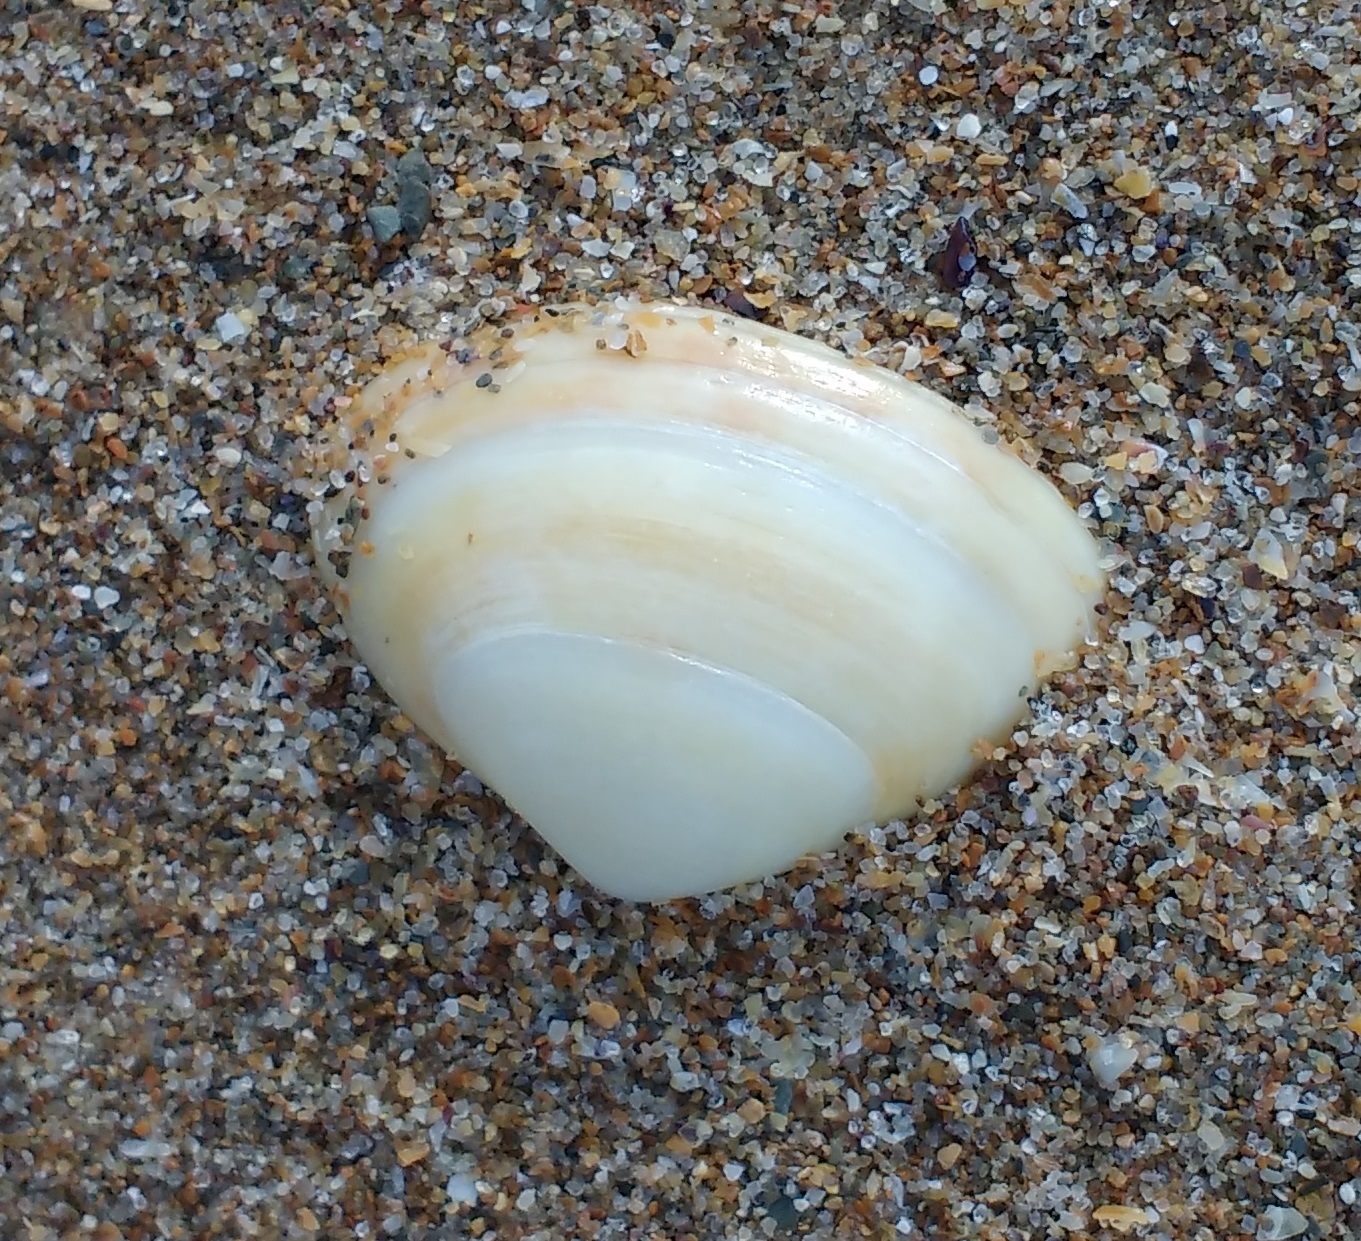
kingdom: Animalia
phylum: Mollusca
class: Bivalvia
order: Venerida
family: Mactridae
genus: Spisula
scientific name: Spisula solida
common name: Thick trough shell
